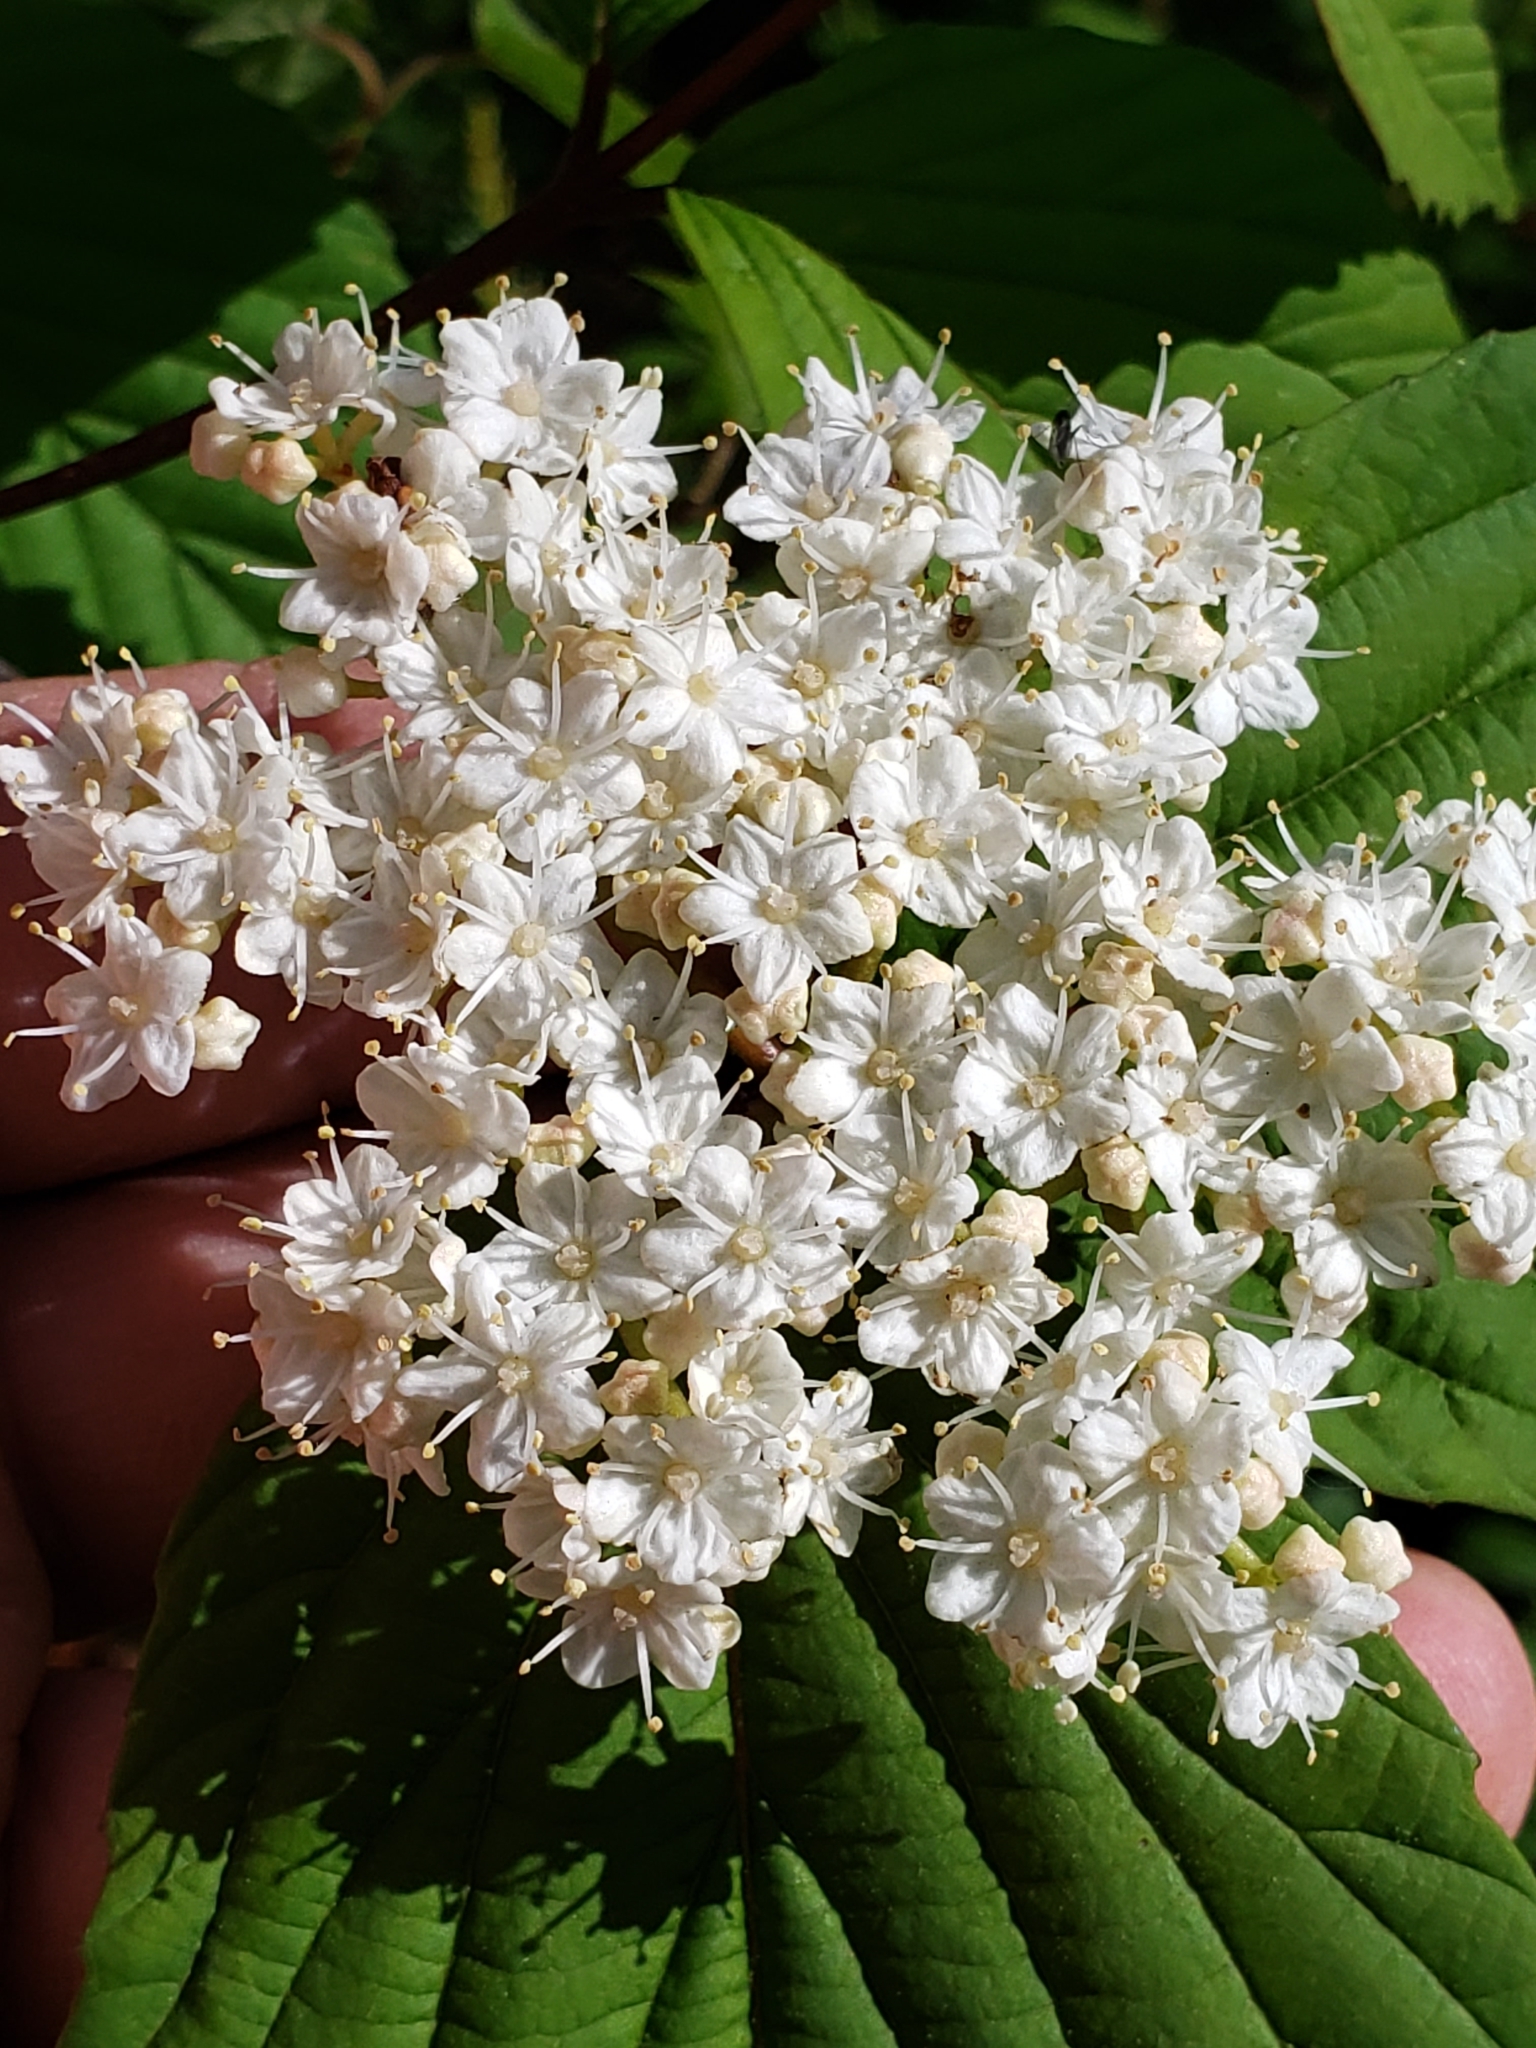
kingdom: Plantae
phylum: Tracheophyta
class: Magnoliopsida
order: Dipsacales
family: Viburnaceae
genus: Viburnum
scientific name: Viburnum wrightii
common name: Wright's viburnum
